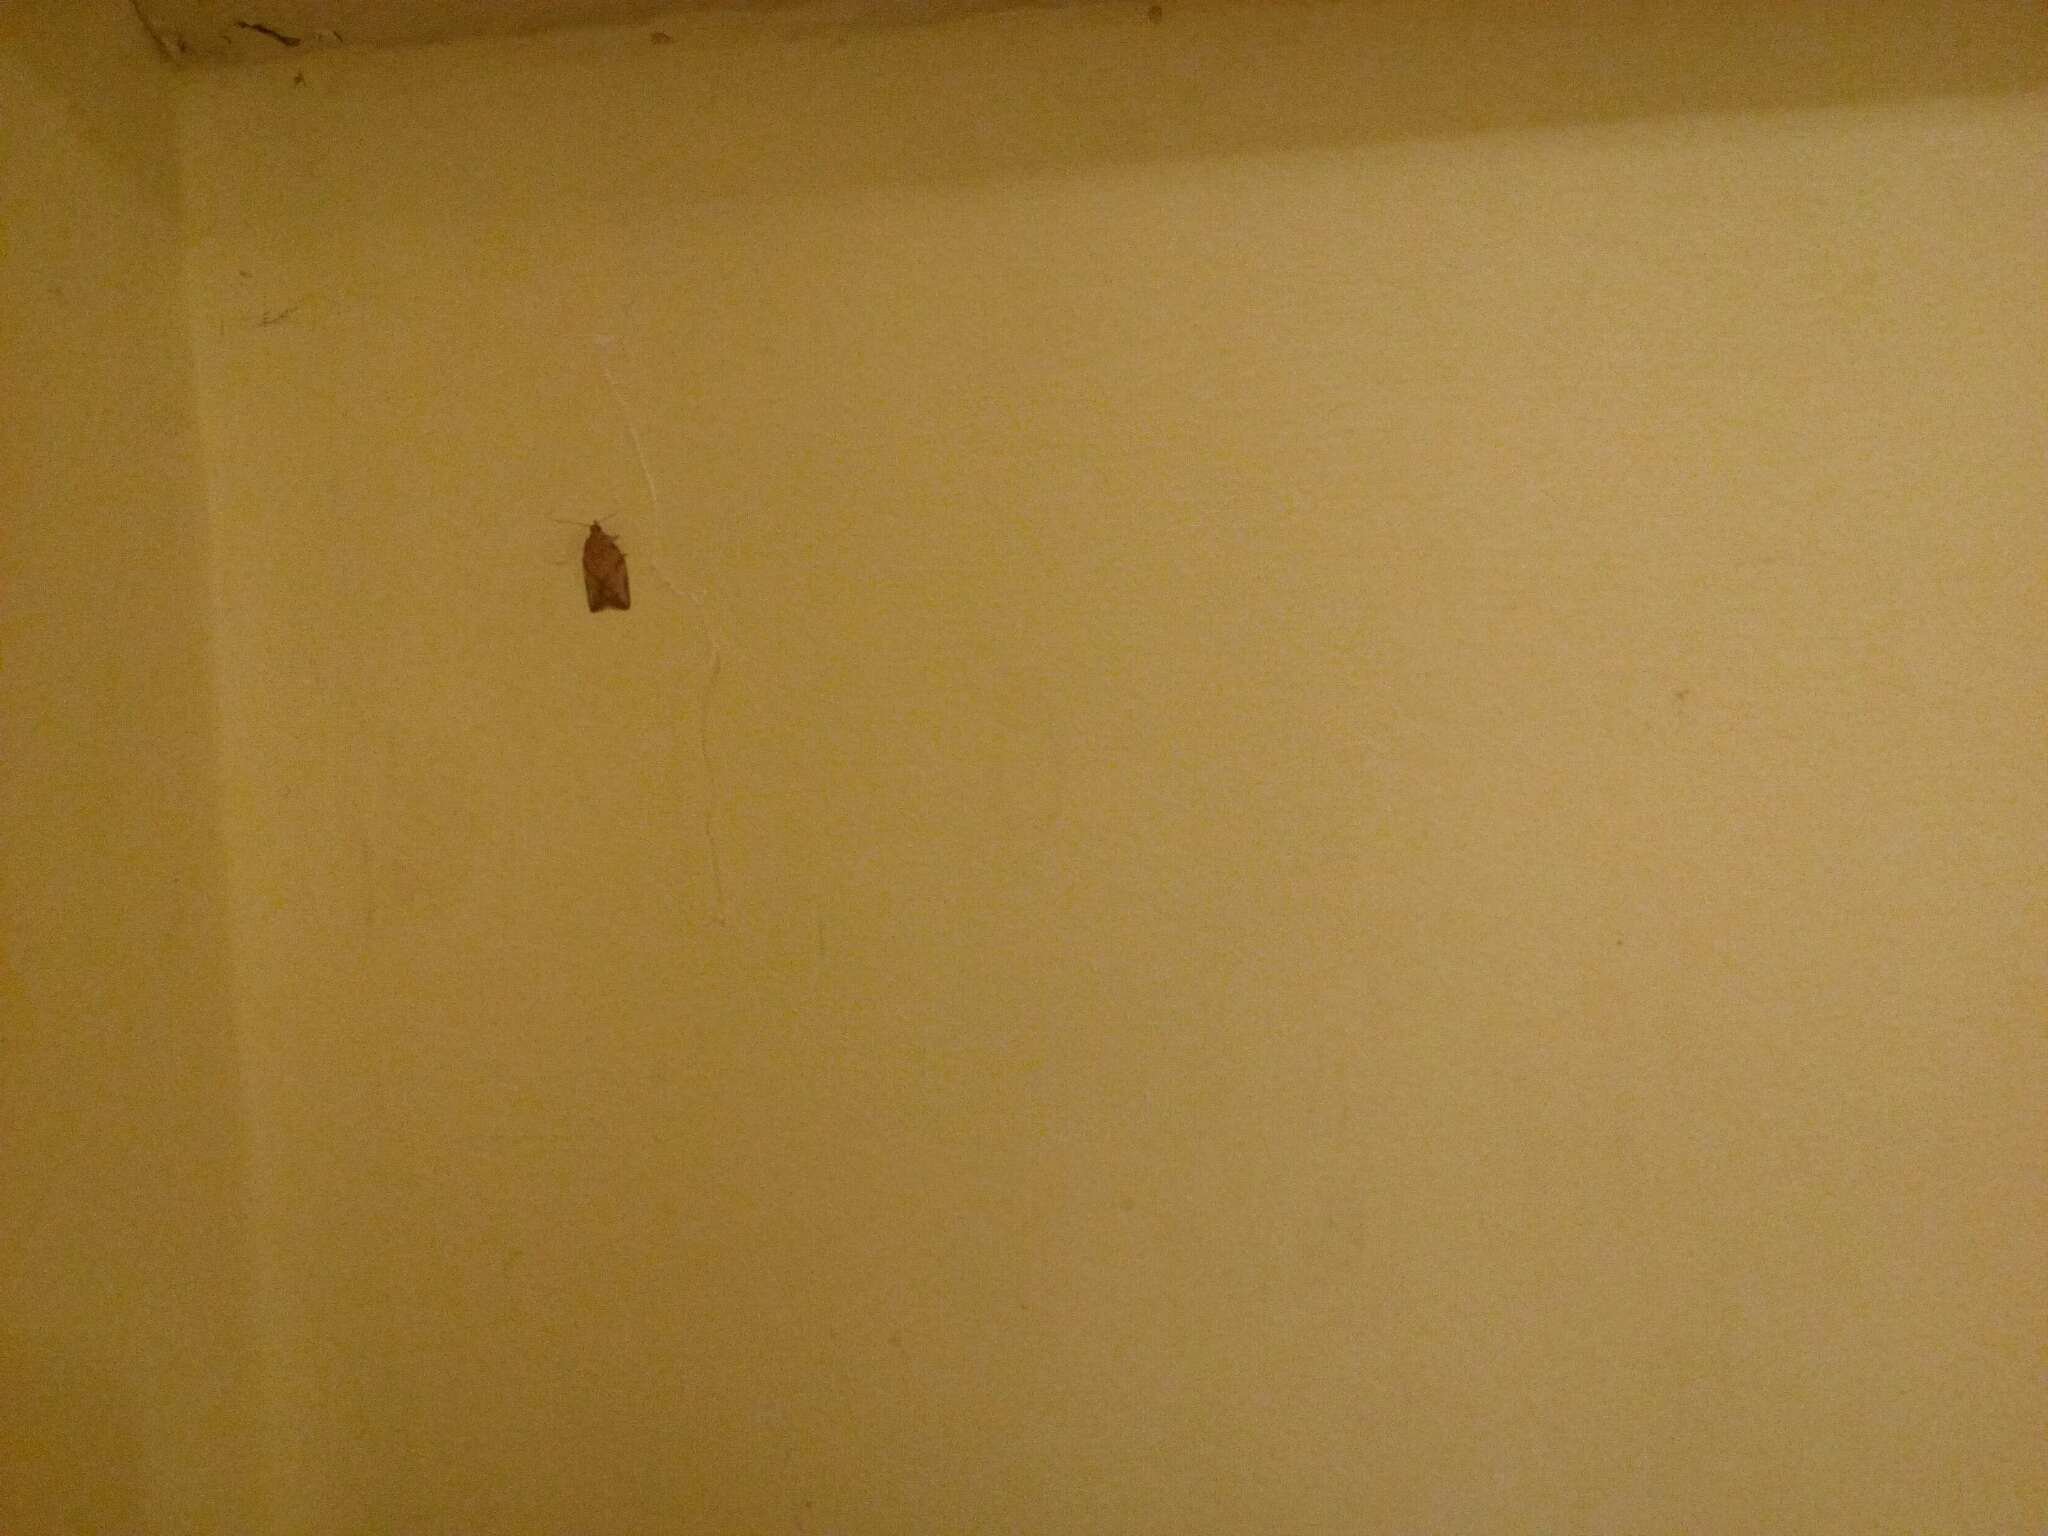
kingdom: Animalia
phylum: Arthropoda
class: Insecta
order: Lepidoptera
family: Tortricidae
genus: Epiphyas
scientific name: Epiphyas postvittana
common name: Light brown apple moth
